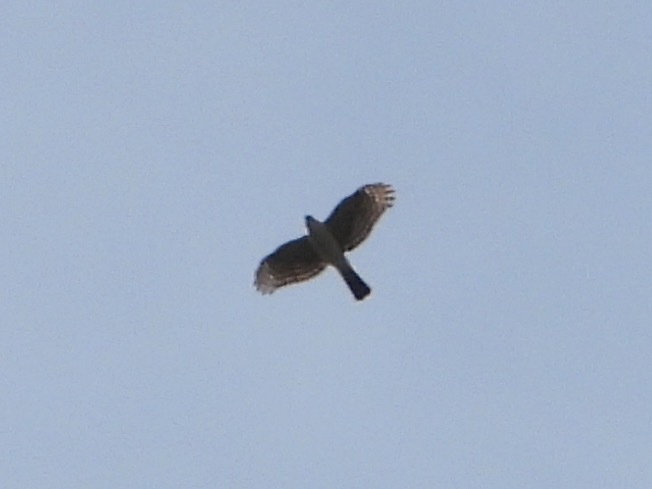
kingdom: Animalia
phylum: Chordata
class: Aves
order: Accipitriformes
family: Accipitridae
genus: Accipiter
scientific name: Accipiter striatus
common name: Sharp-shinned hawk
